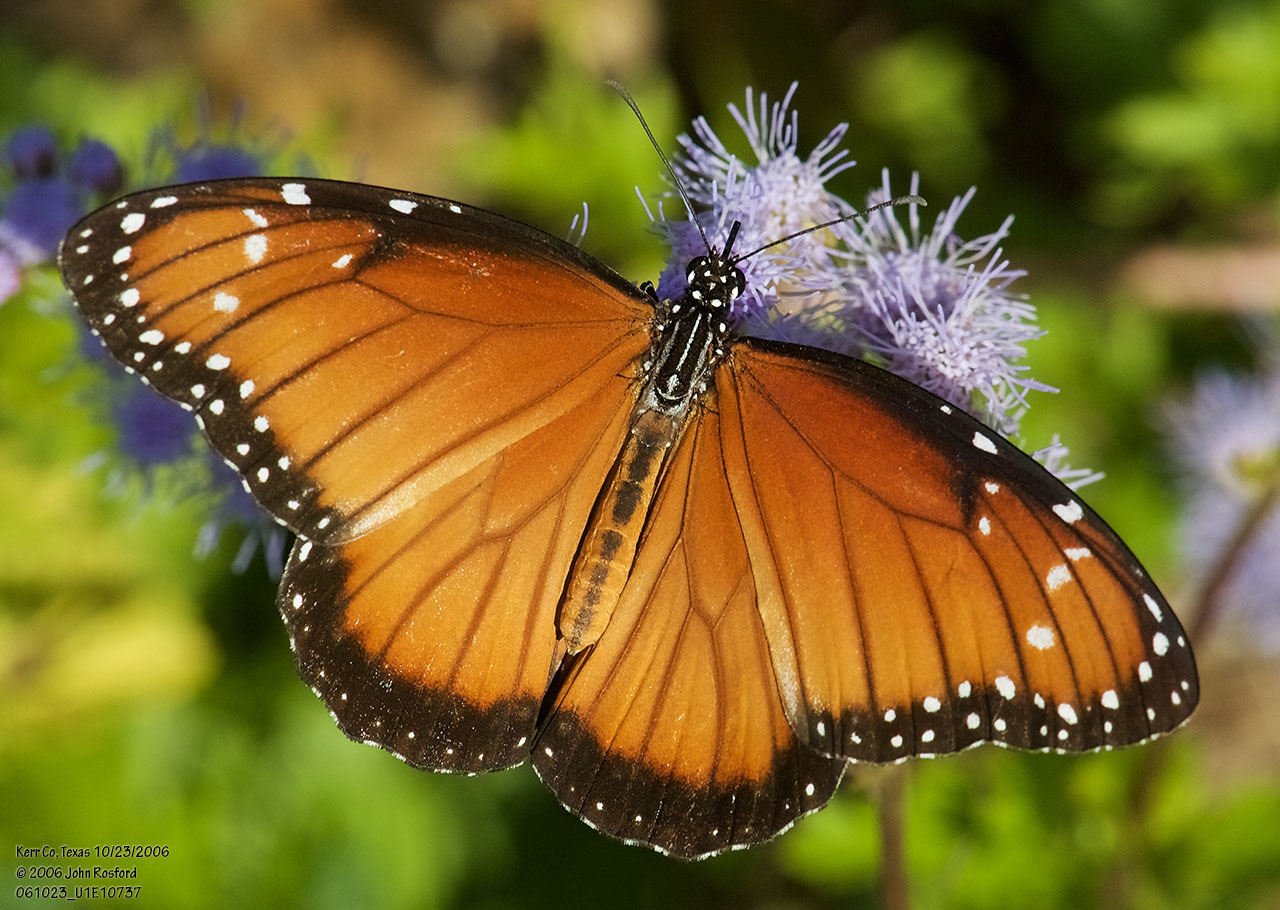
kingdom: Animalia
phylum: Arthropoda
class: Insecta
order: Lepidoptera
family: Nymphalidae
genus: Danaus
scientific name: Danaus eresimus
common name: Soldier
